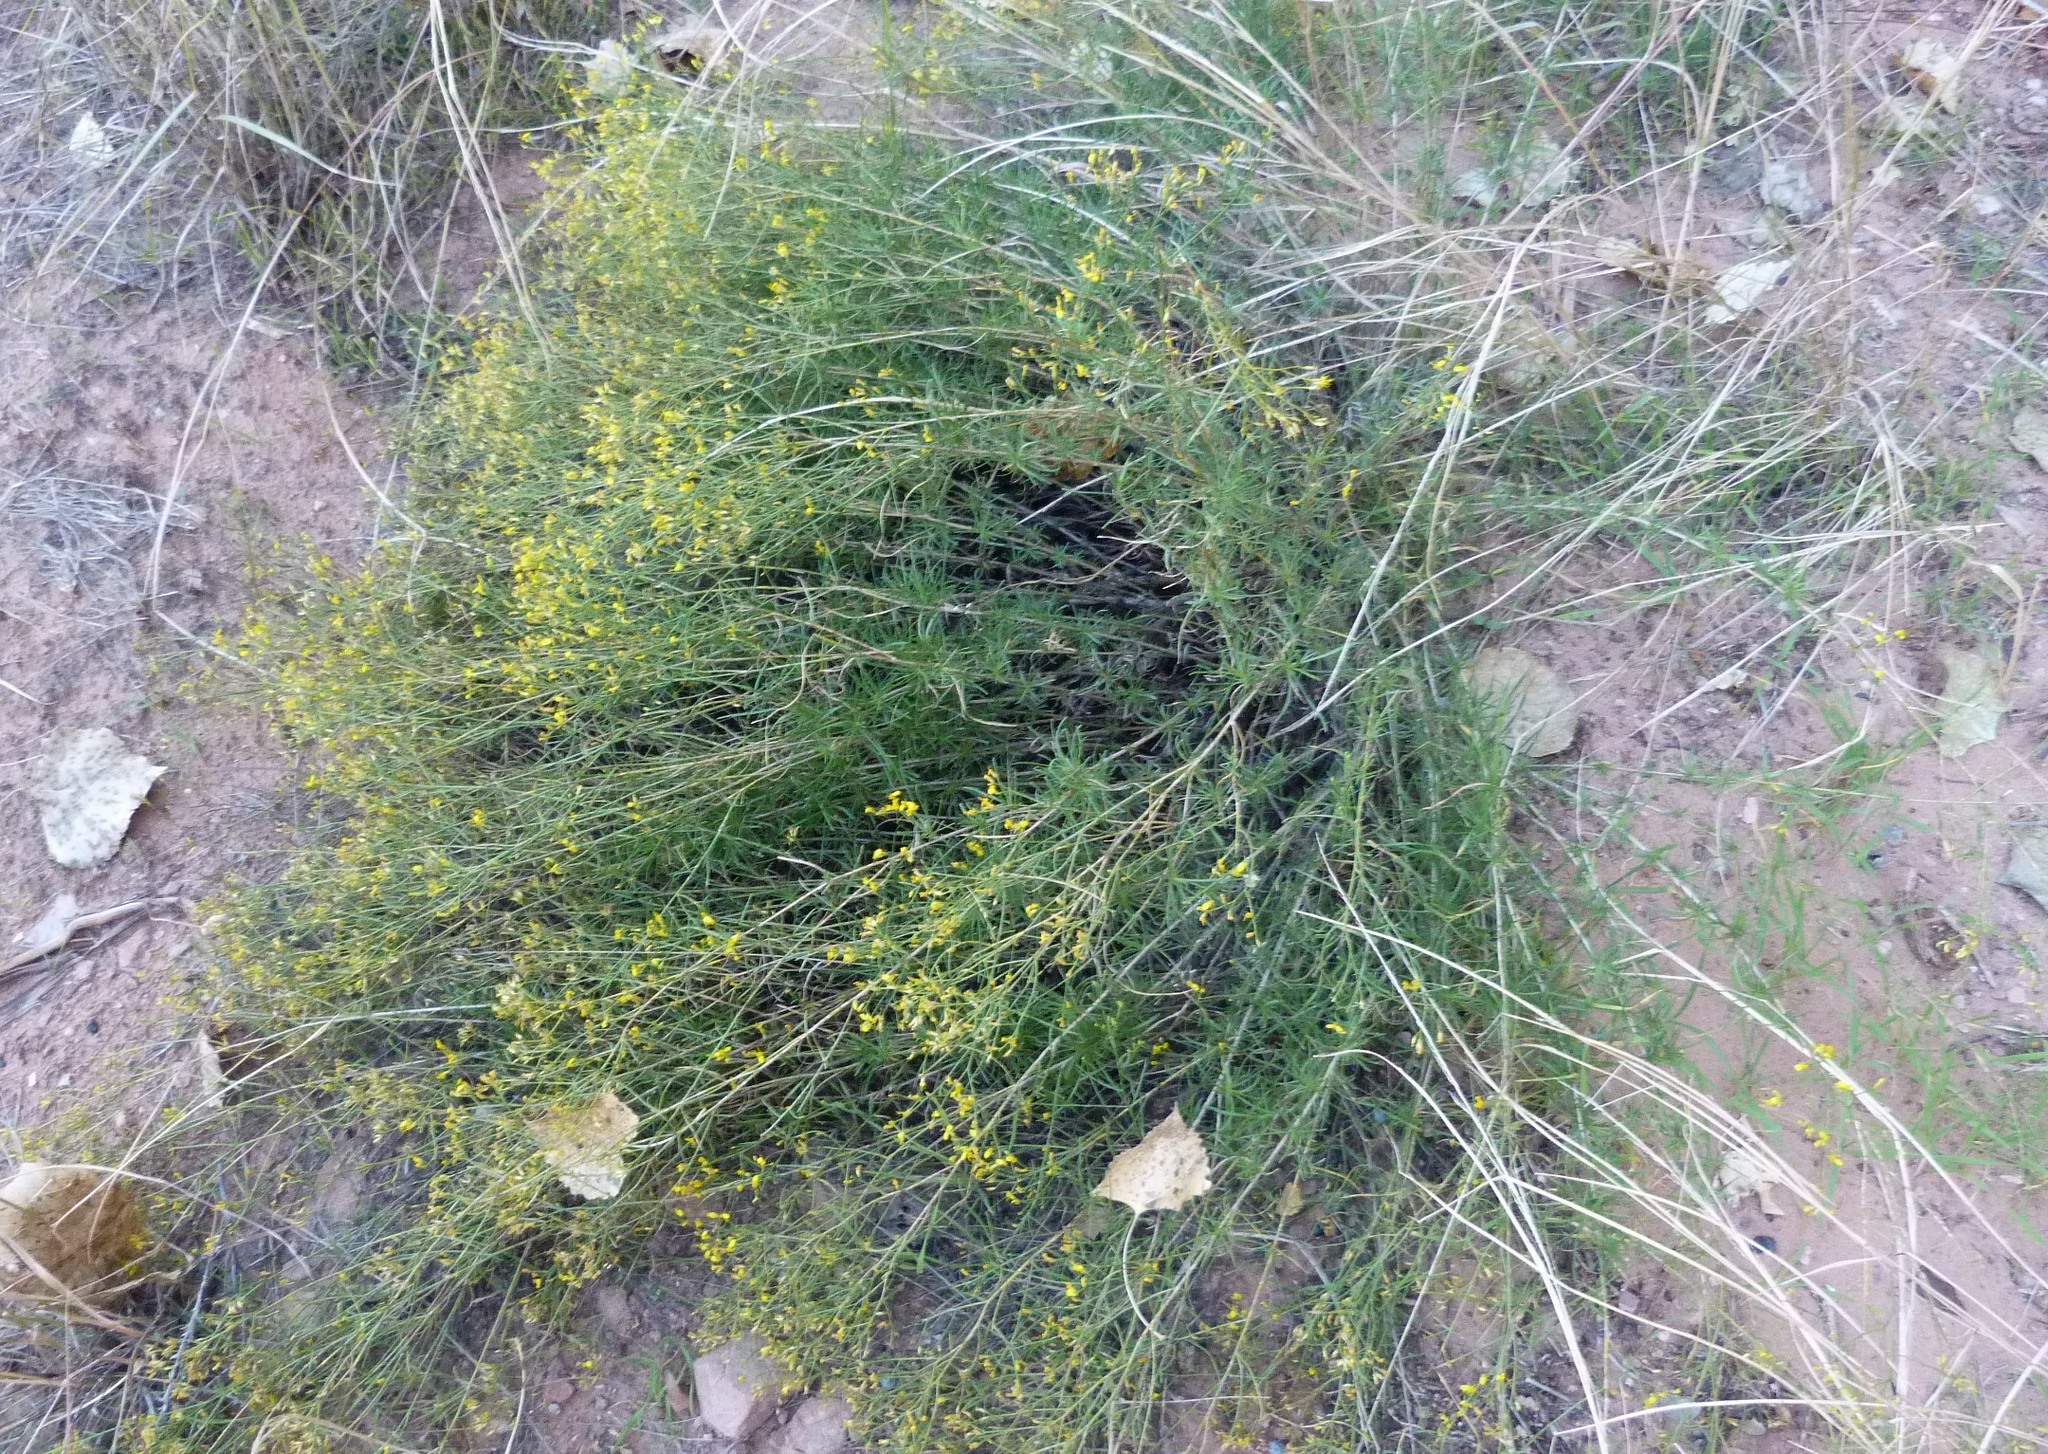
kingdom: Plantae
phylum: Tracheophyta
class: Magnoliopsida
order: Asterales
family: Asteraceae
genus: Gutierrezia
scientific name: Gutierrezia microcephala
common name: Thread snakeweed
